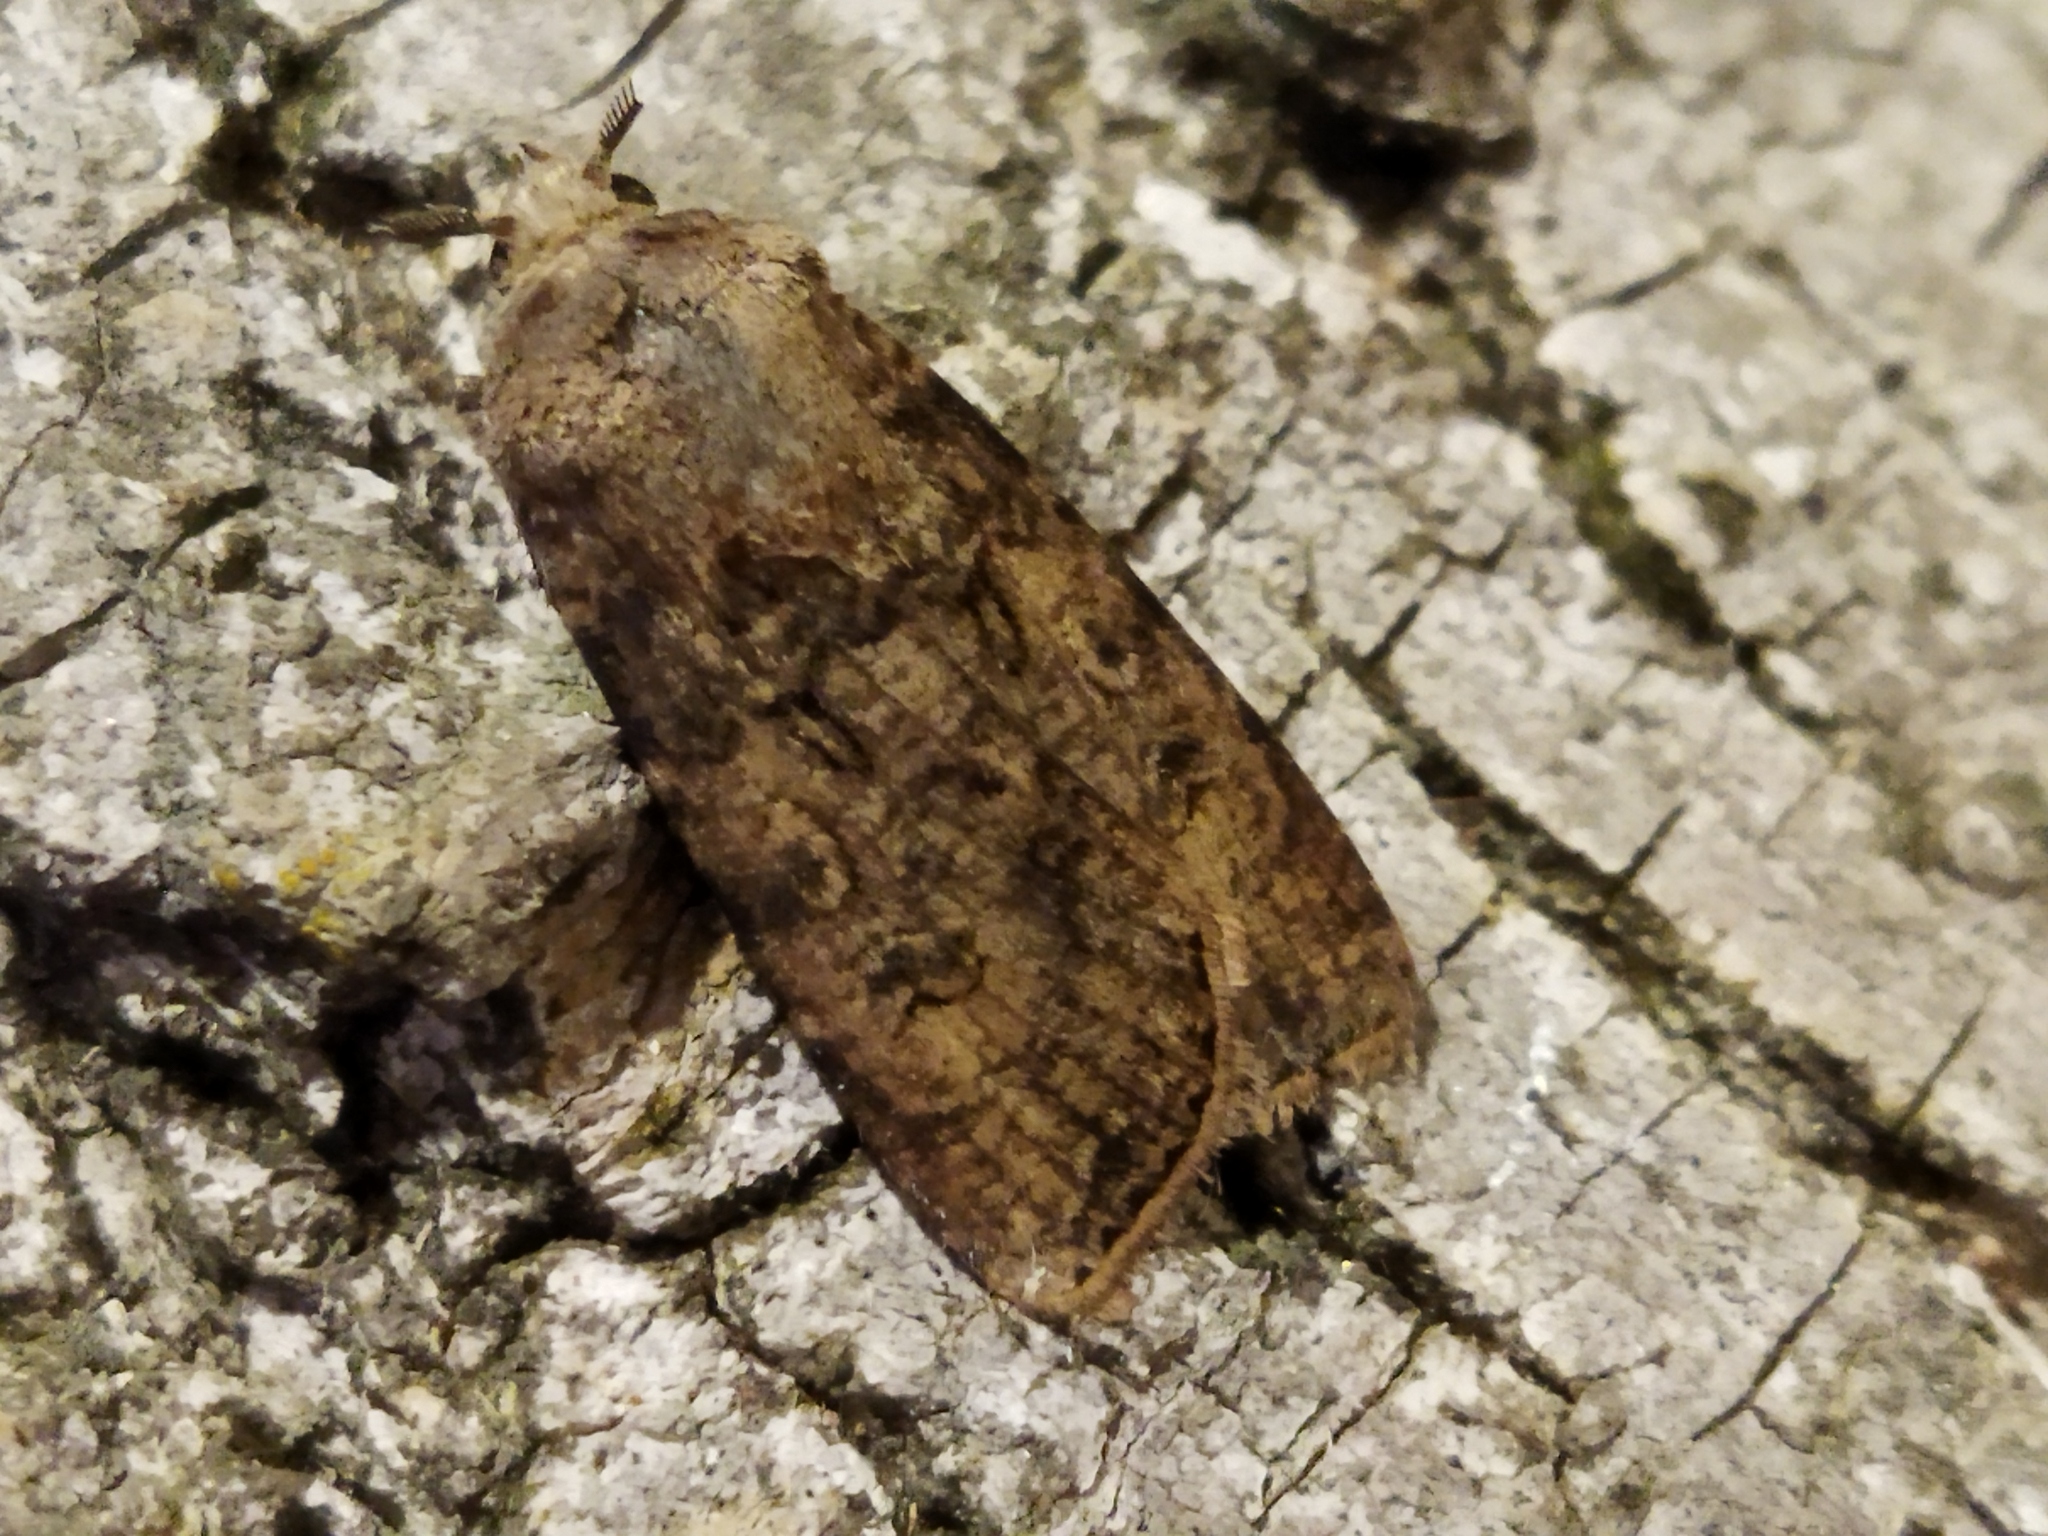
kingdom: Animalia
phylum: Arthropoda
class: Insecta
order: Lepidoptera
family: Noctuidae
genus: Agrotis
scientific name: Agrotis segetum
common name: Turnip moth
